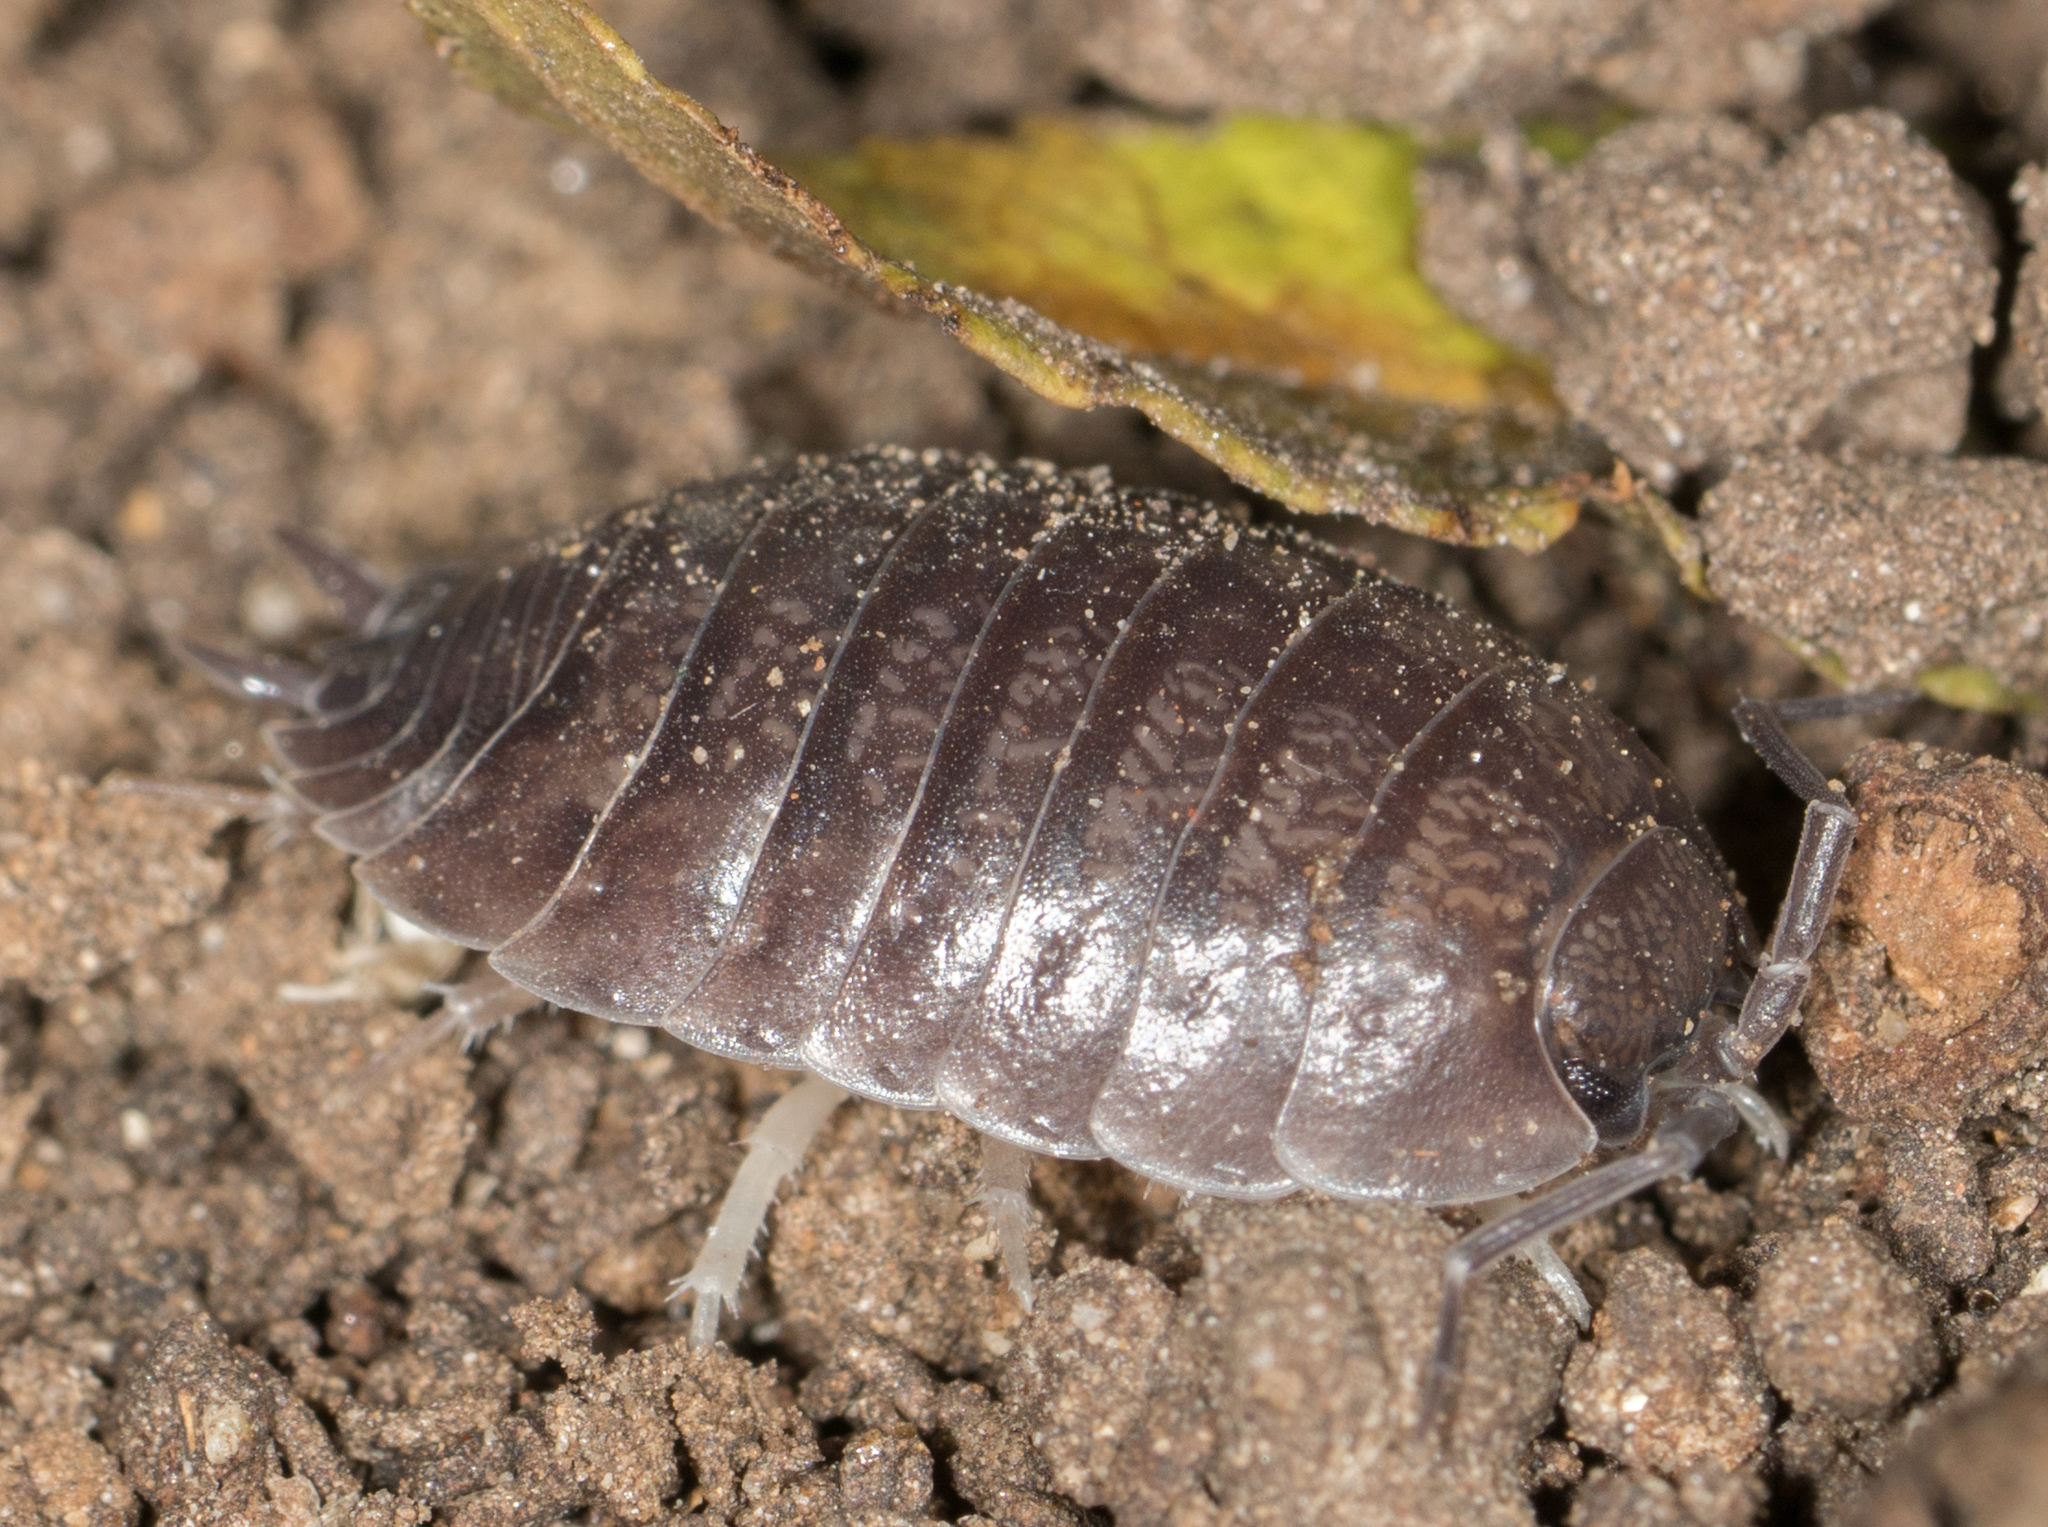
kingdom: Animalia
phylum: Arthropoda
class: Malacostraca
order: Isopoda
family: Porcellionidae
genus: Porcellio
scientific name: Porcellio laevis
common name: Swift woodlouse
